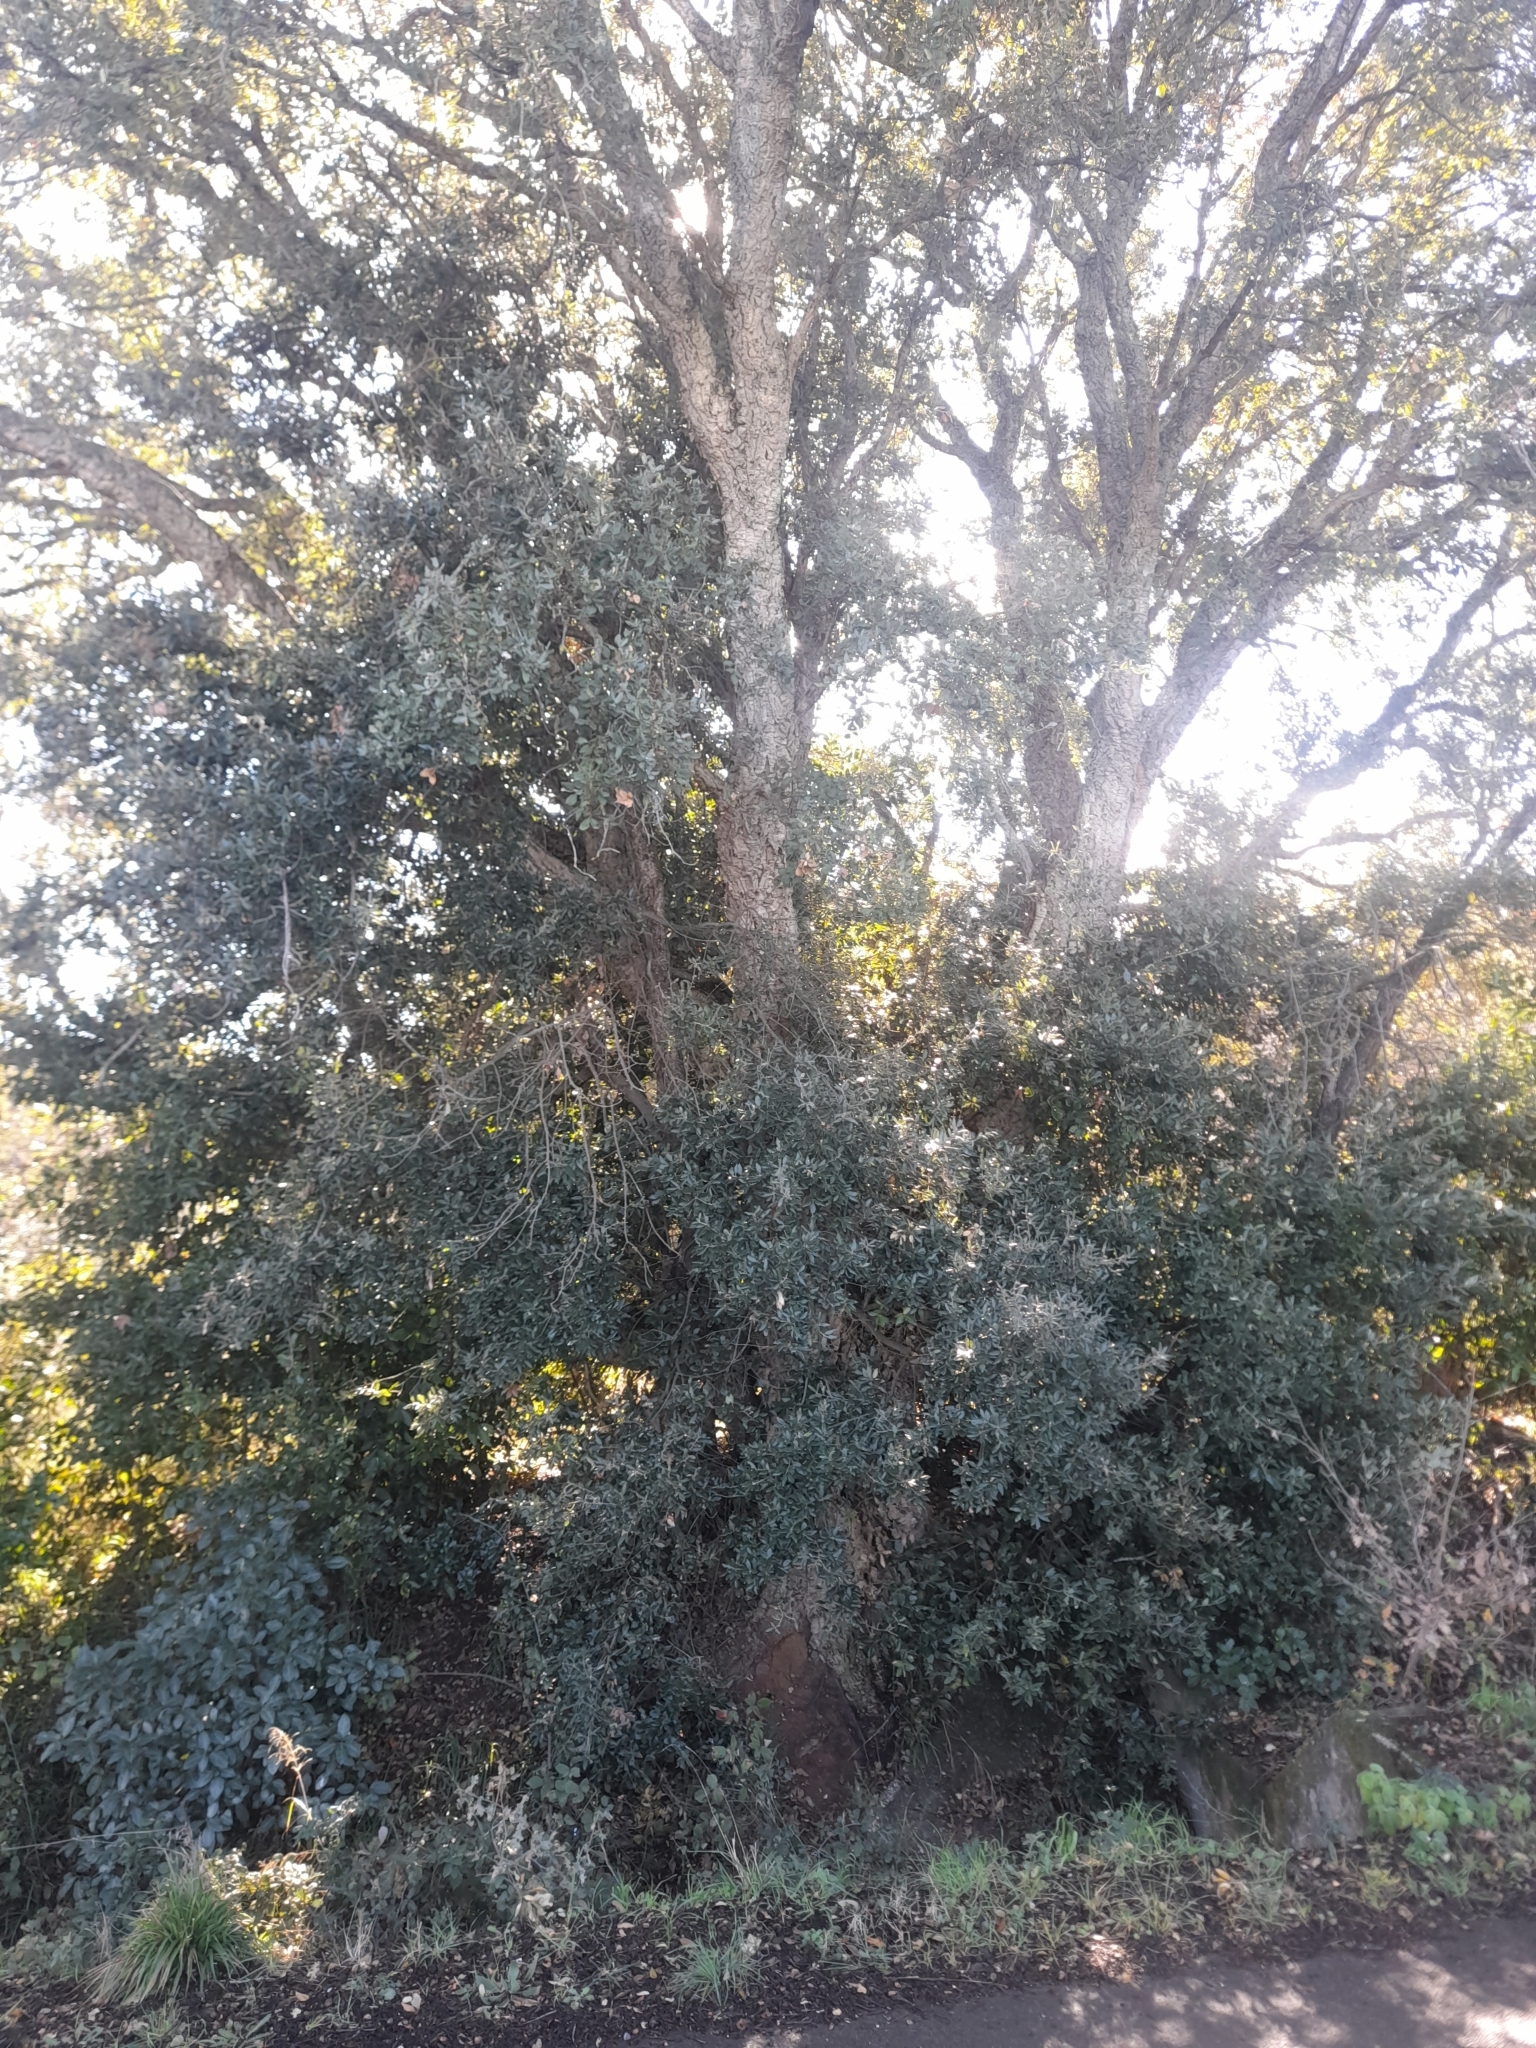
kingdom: Plantae
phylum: Tracheophyta
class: Magnoliopsida
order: Fagales
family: Fagaceae
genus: Quercus
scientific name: Quercus suber
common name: Cork oak
